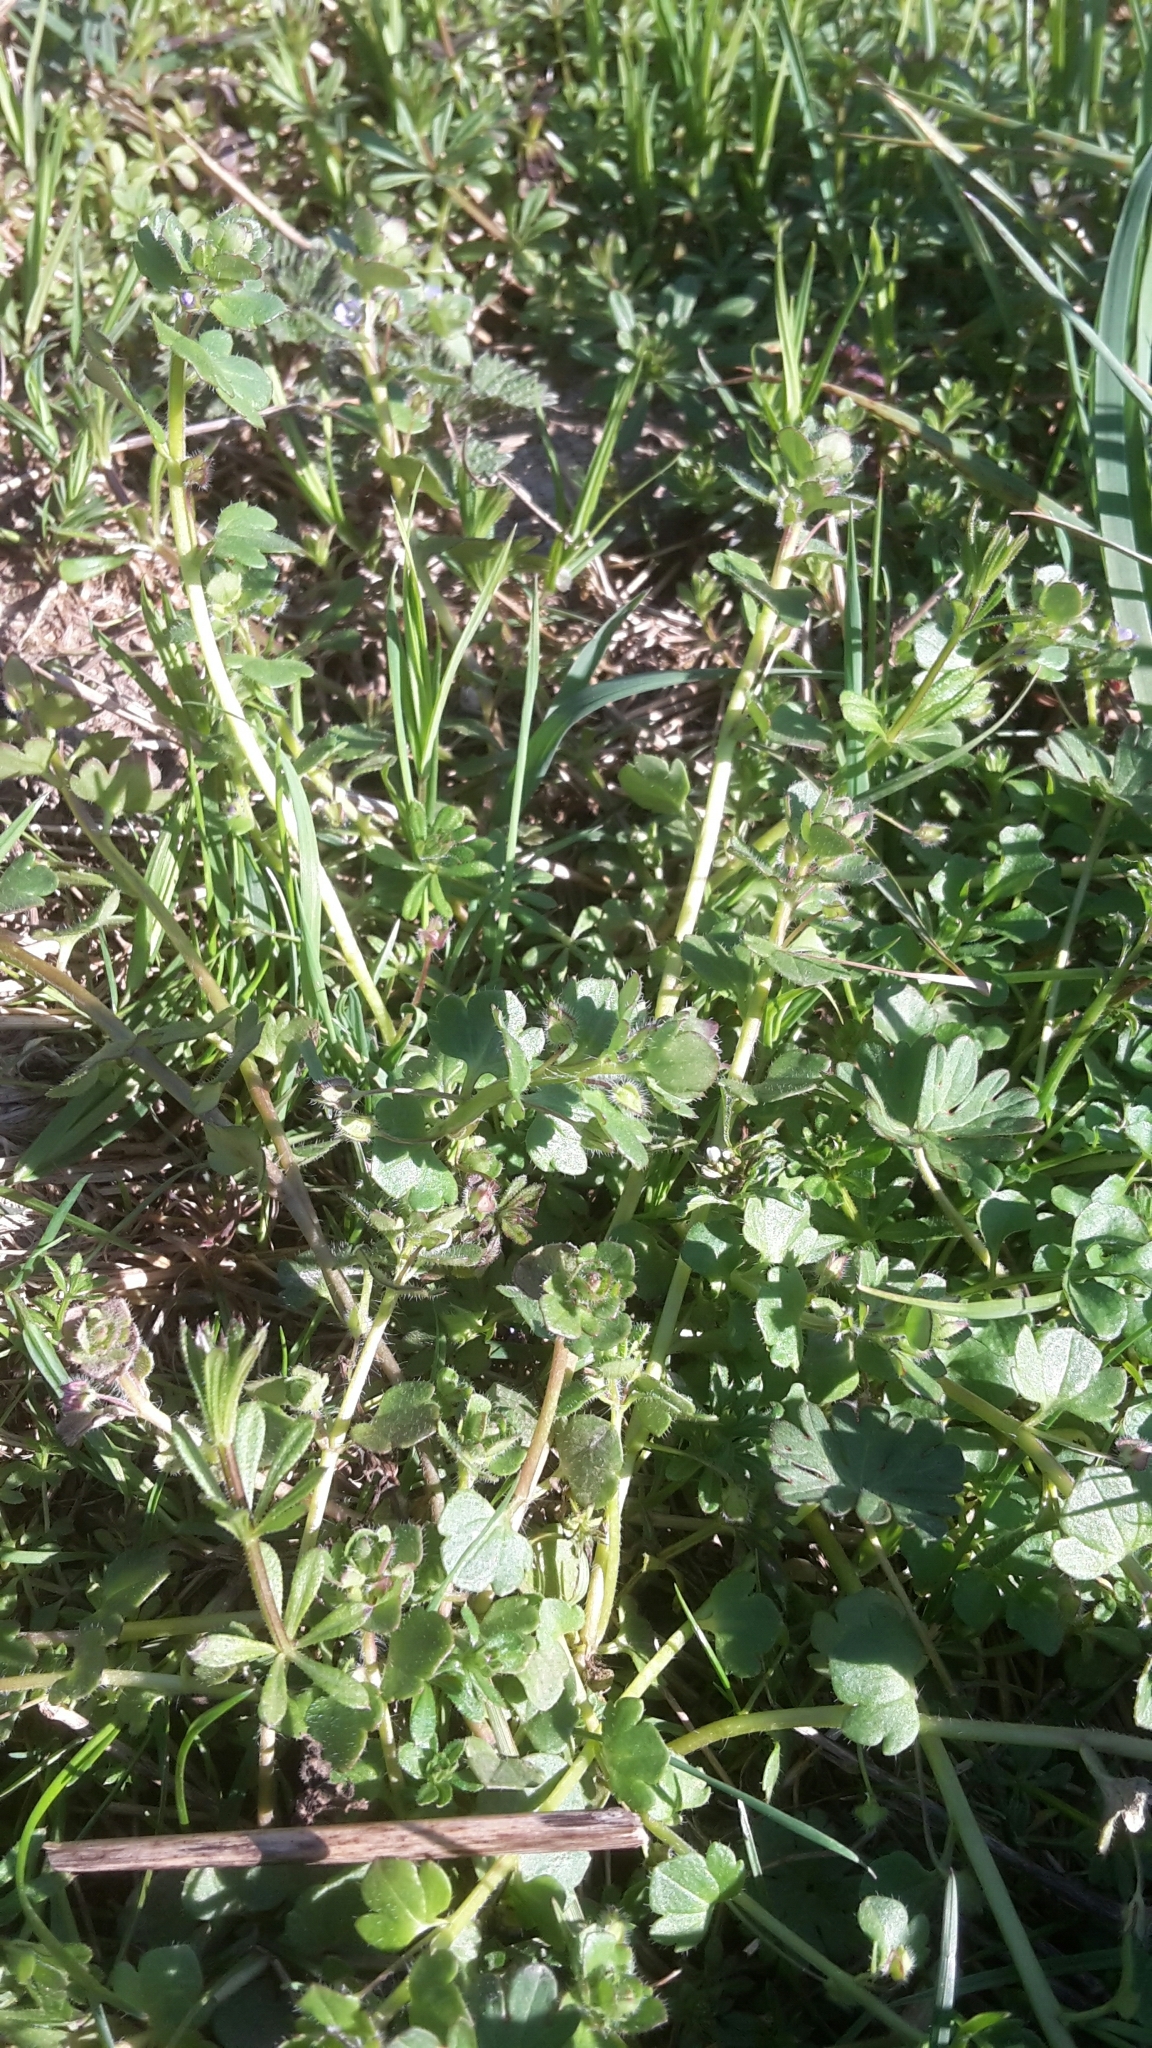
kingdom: Plantae
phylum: Tracheophyta
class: Magnoliopsida
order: Lamiales
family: Plantaginaceae
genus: Veronica
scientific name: Veronica hederifolia
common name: Ivy-leaved speedwell
